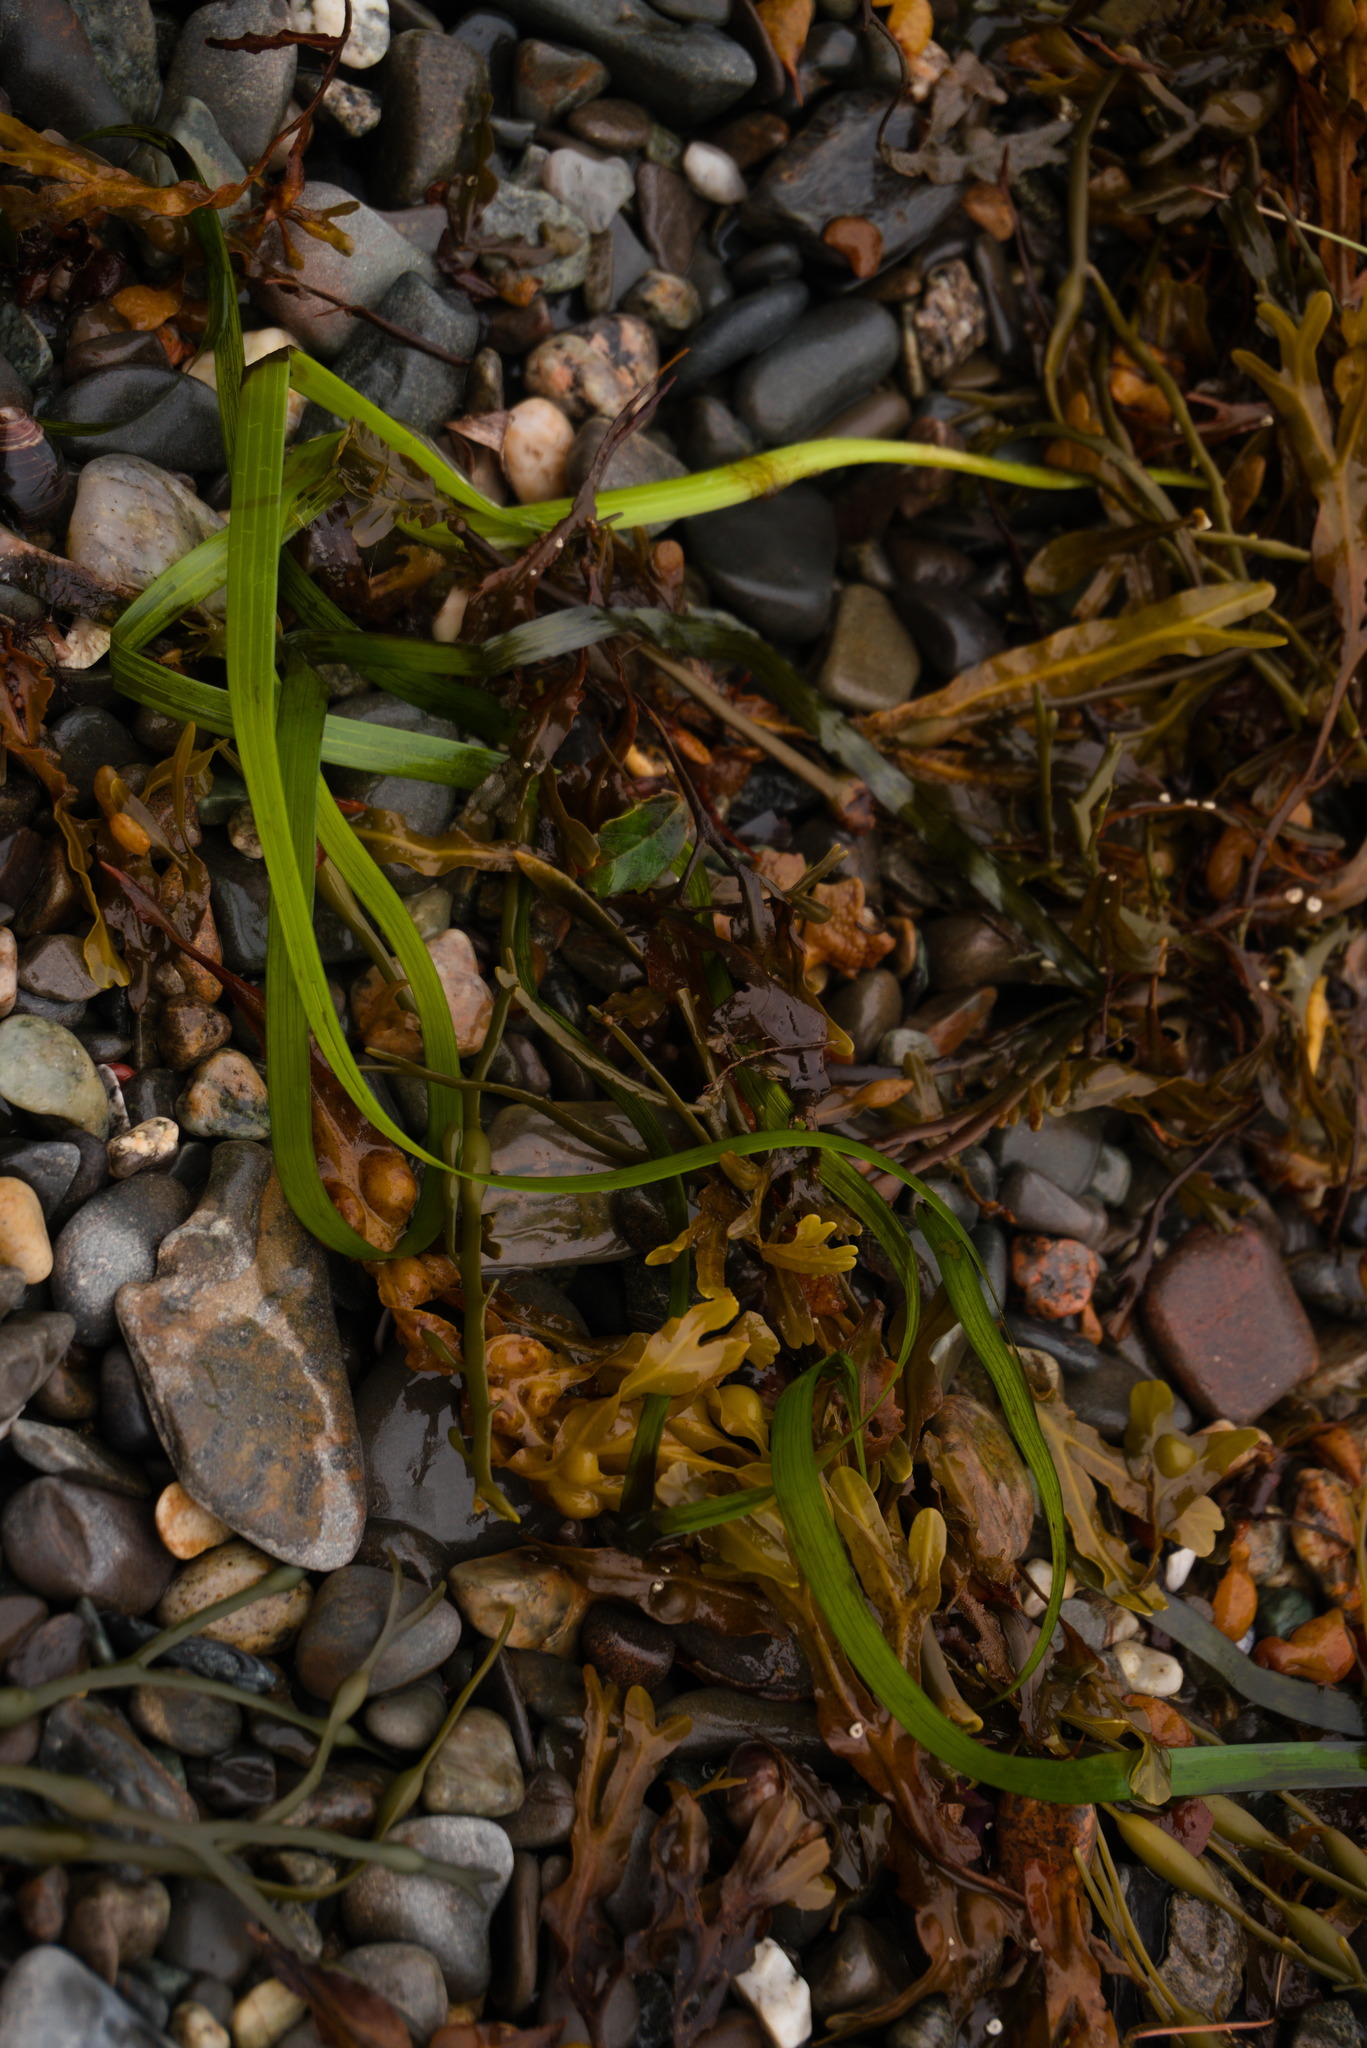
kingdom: Plantae
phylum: Tracheophyta
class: Liliopsida
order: Alismatales
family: Zosteraceae
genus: Zostera
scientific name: Zostera marina
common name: Eelgrass
